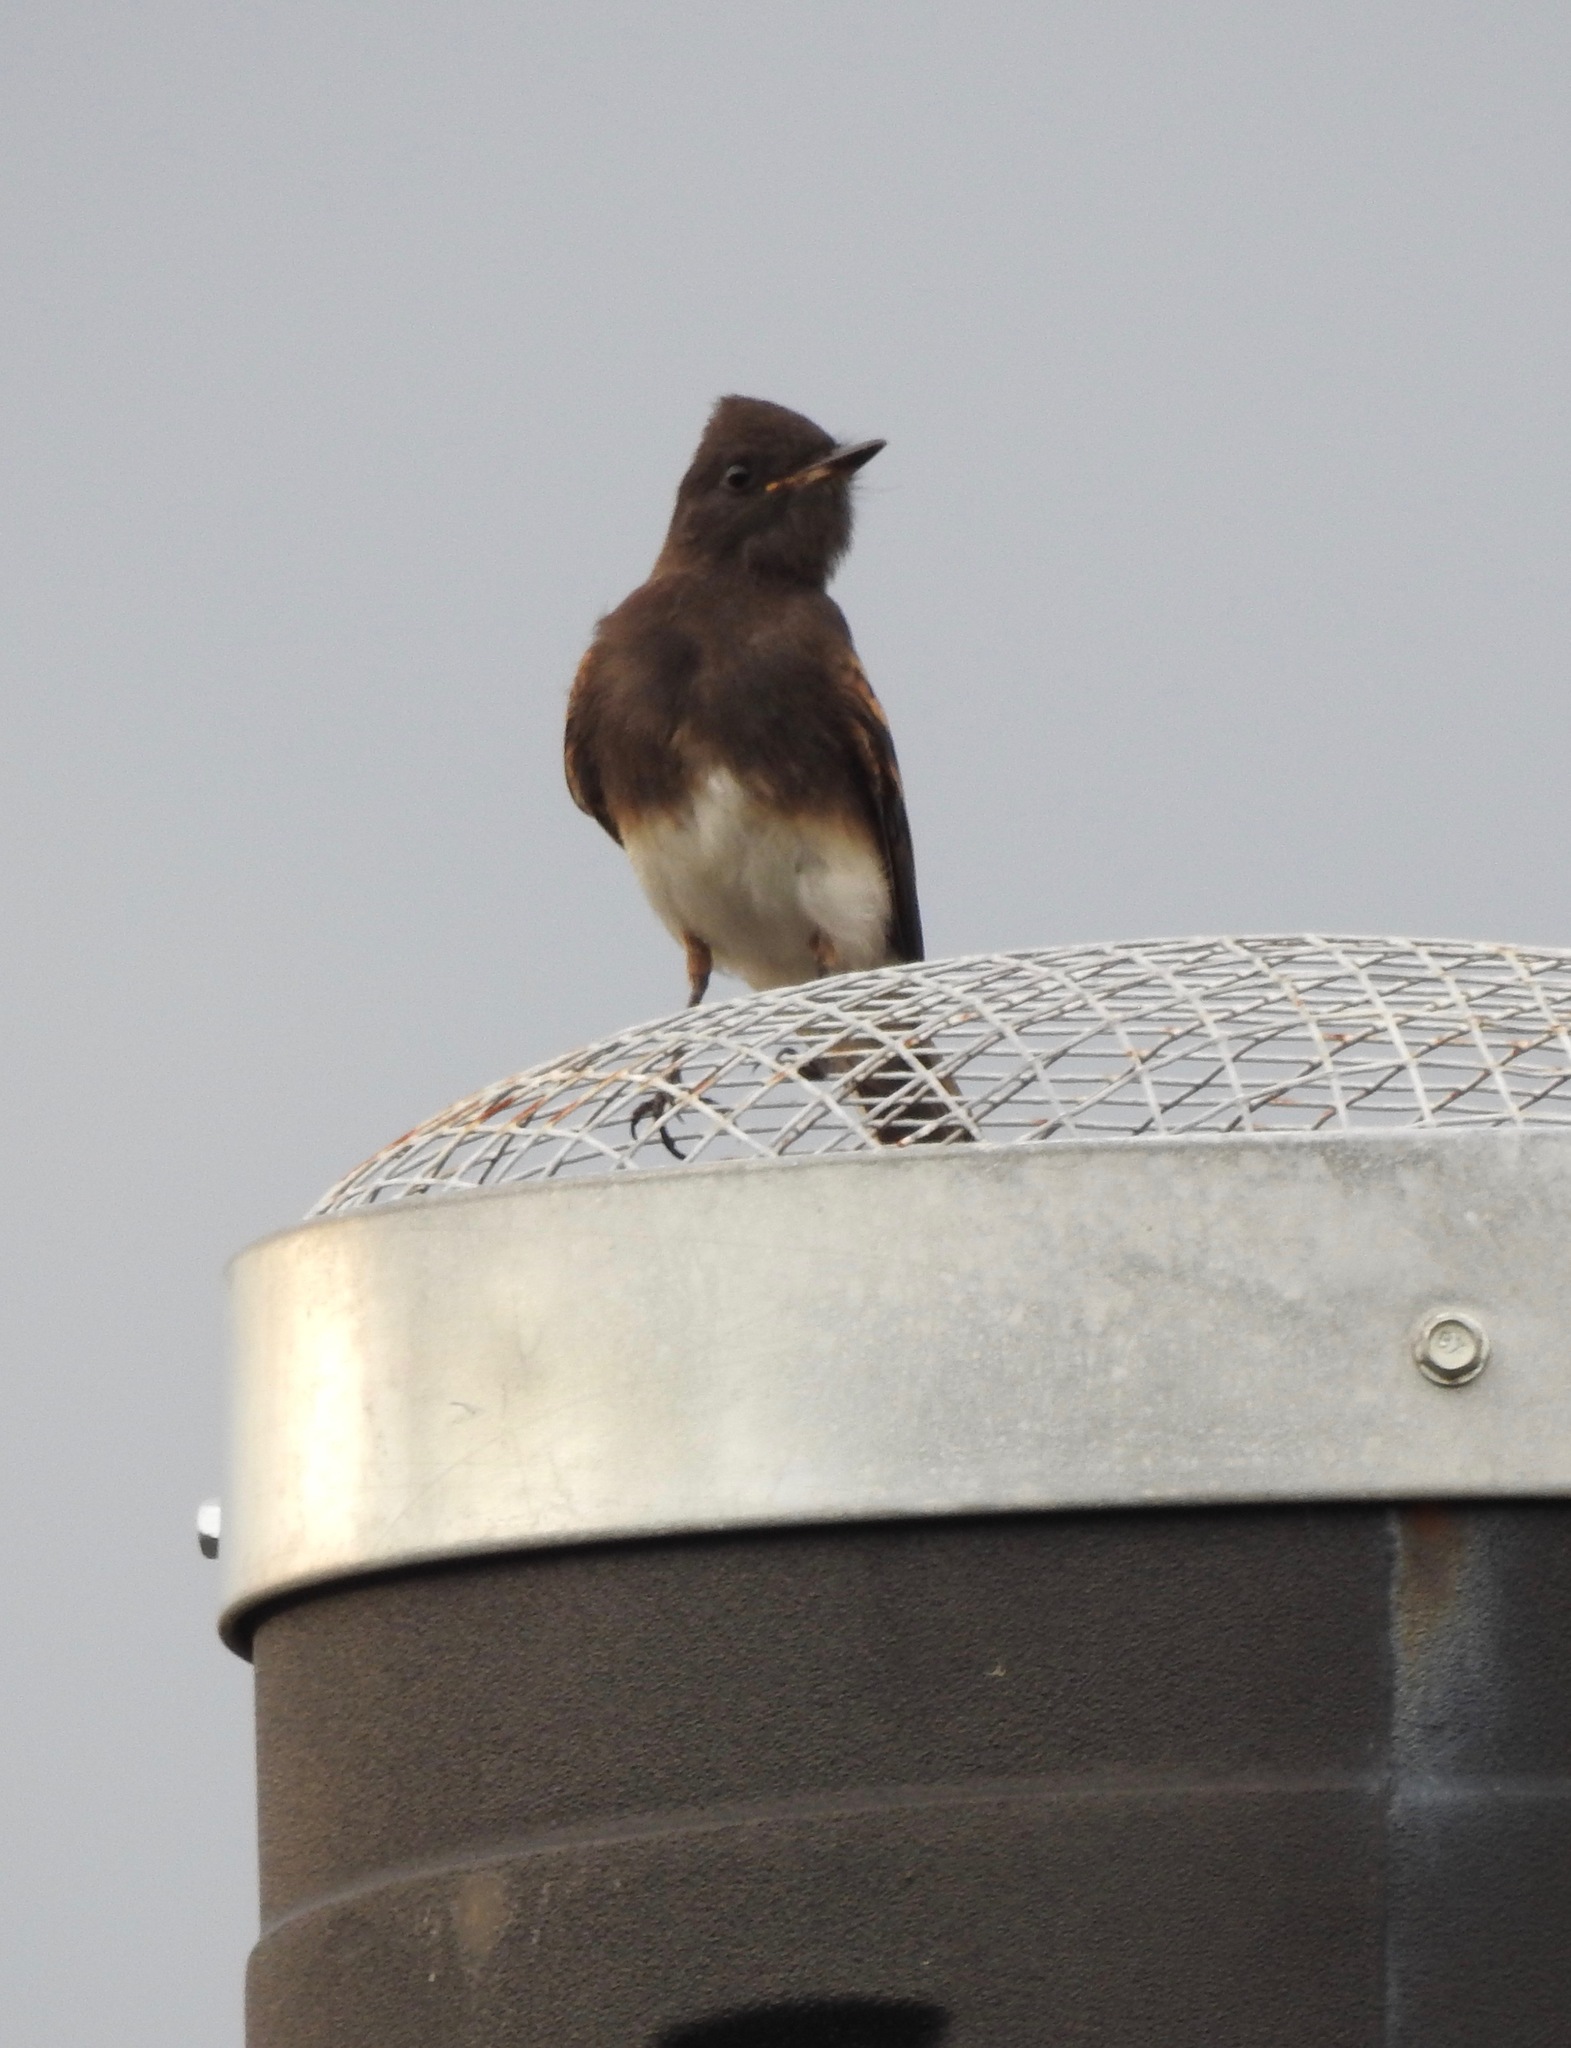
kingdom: Animalia
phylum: Chordata
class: Aves
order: Passeriformes
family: Tyrannidae
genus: Sayornis
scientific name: Sayornis nigricans
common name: Black phoebe
